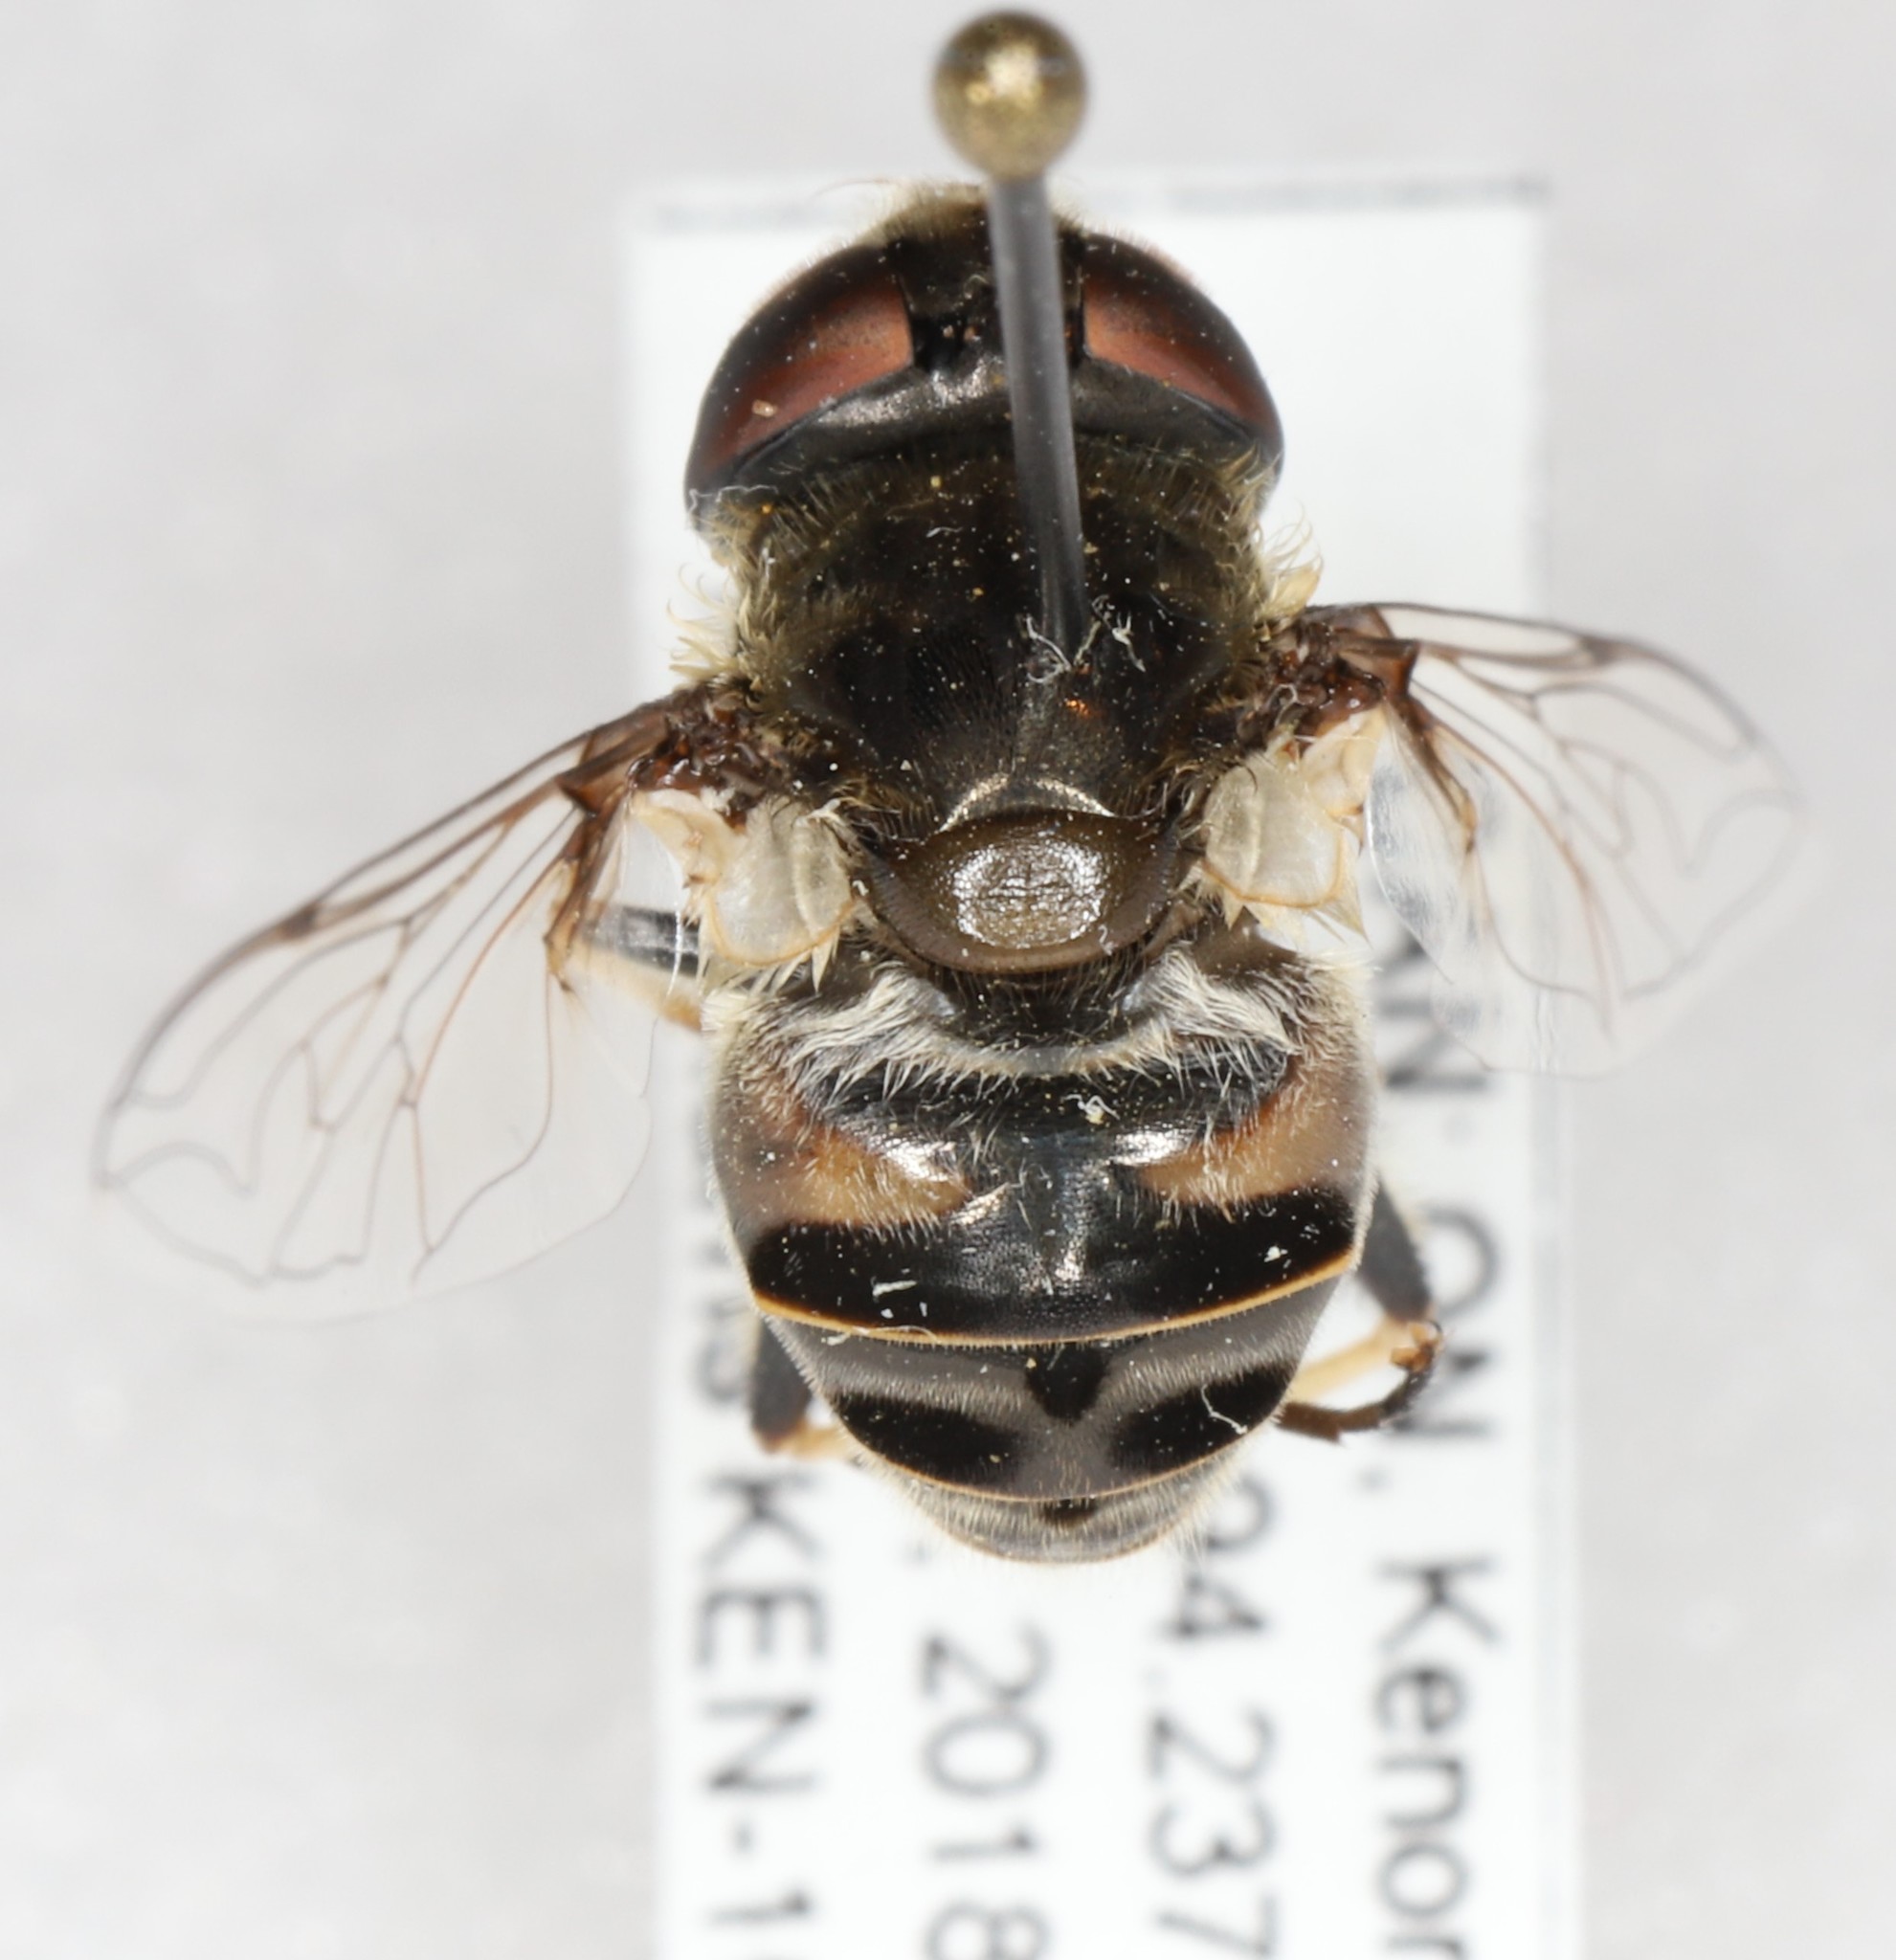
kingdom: Animalia
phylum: Arthropoda
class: Insecta
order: Diptera
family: Syrphidae
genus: Eristalis
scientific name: Eristalis dimidiata
